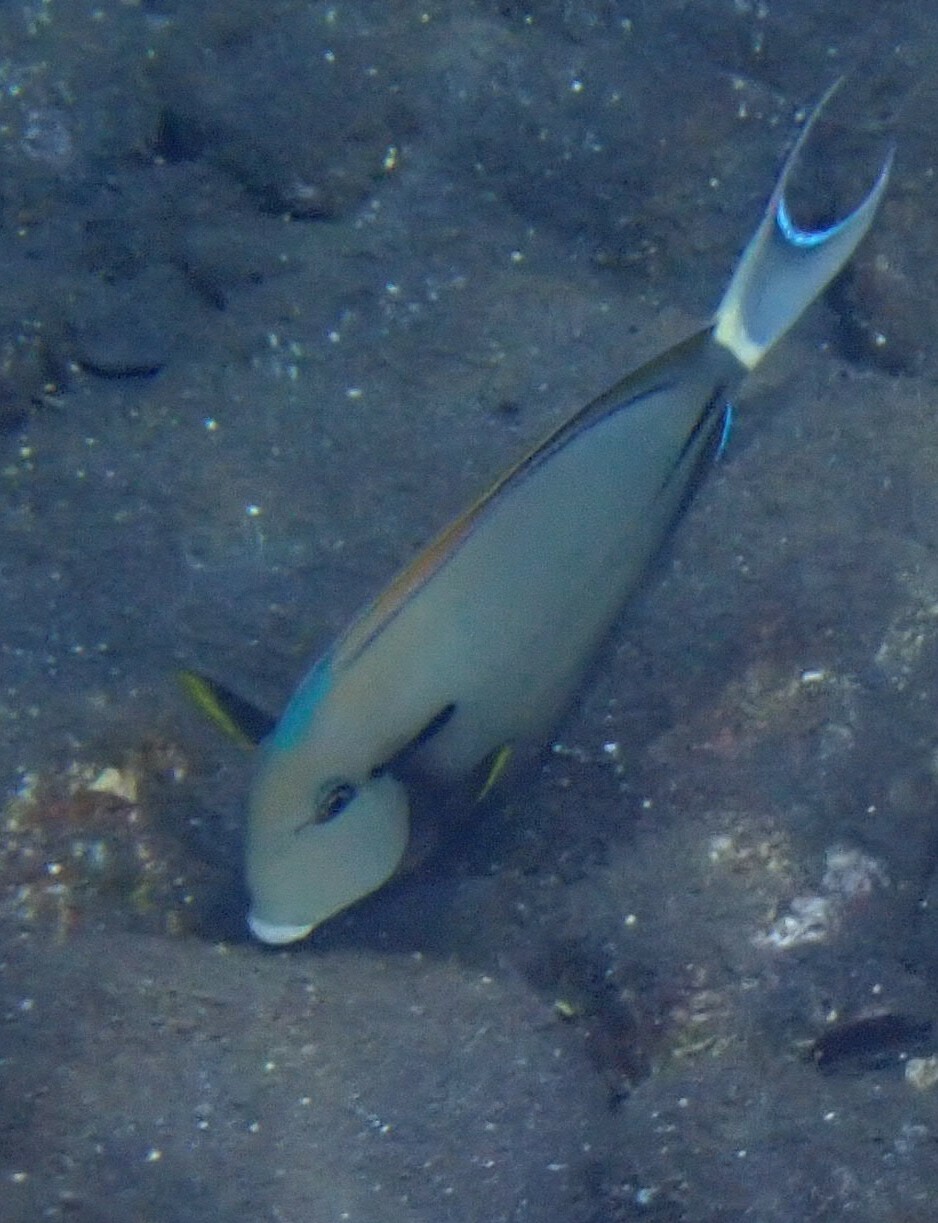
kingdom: Animalia
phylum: Chordata
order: Perciformes
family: Acanthuridae
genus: Acanthurus
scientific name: Acanthurus nigricauda
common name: Black-barred surgeonfish
